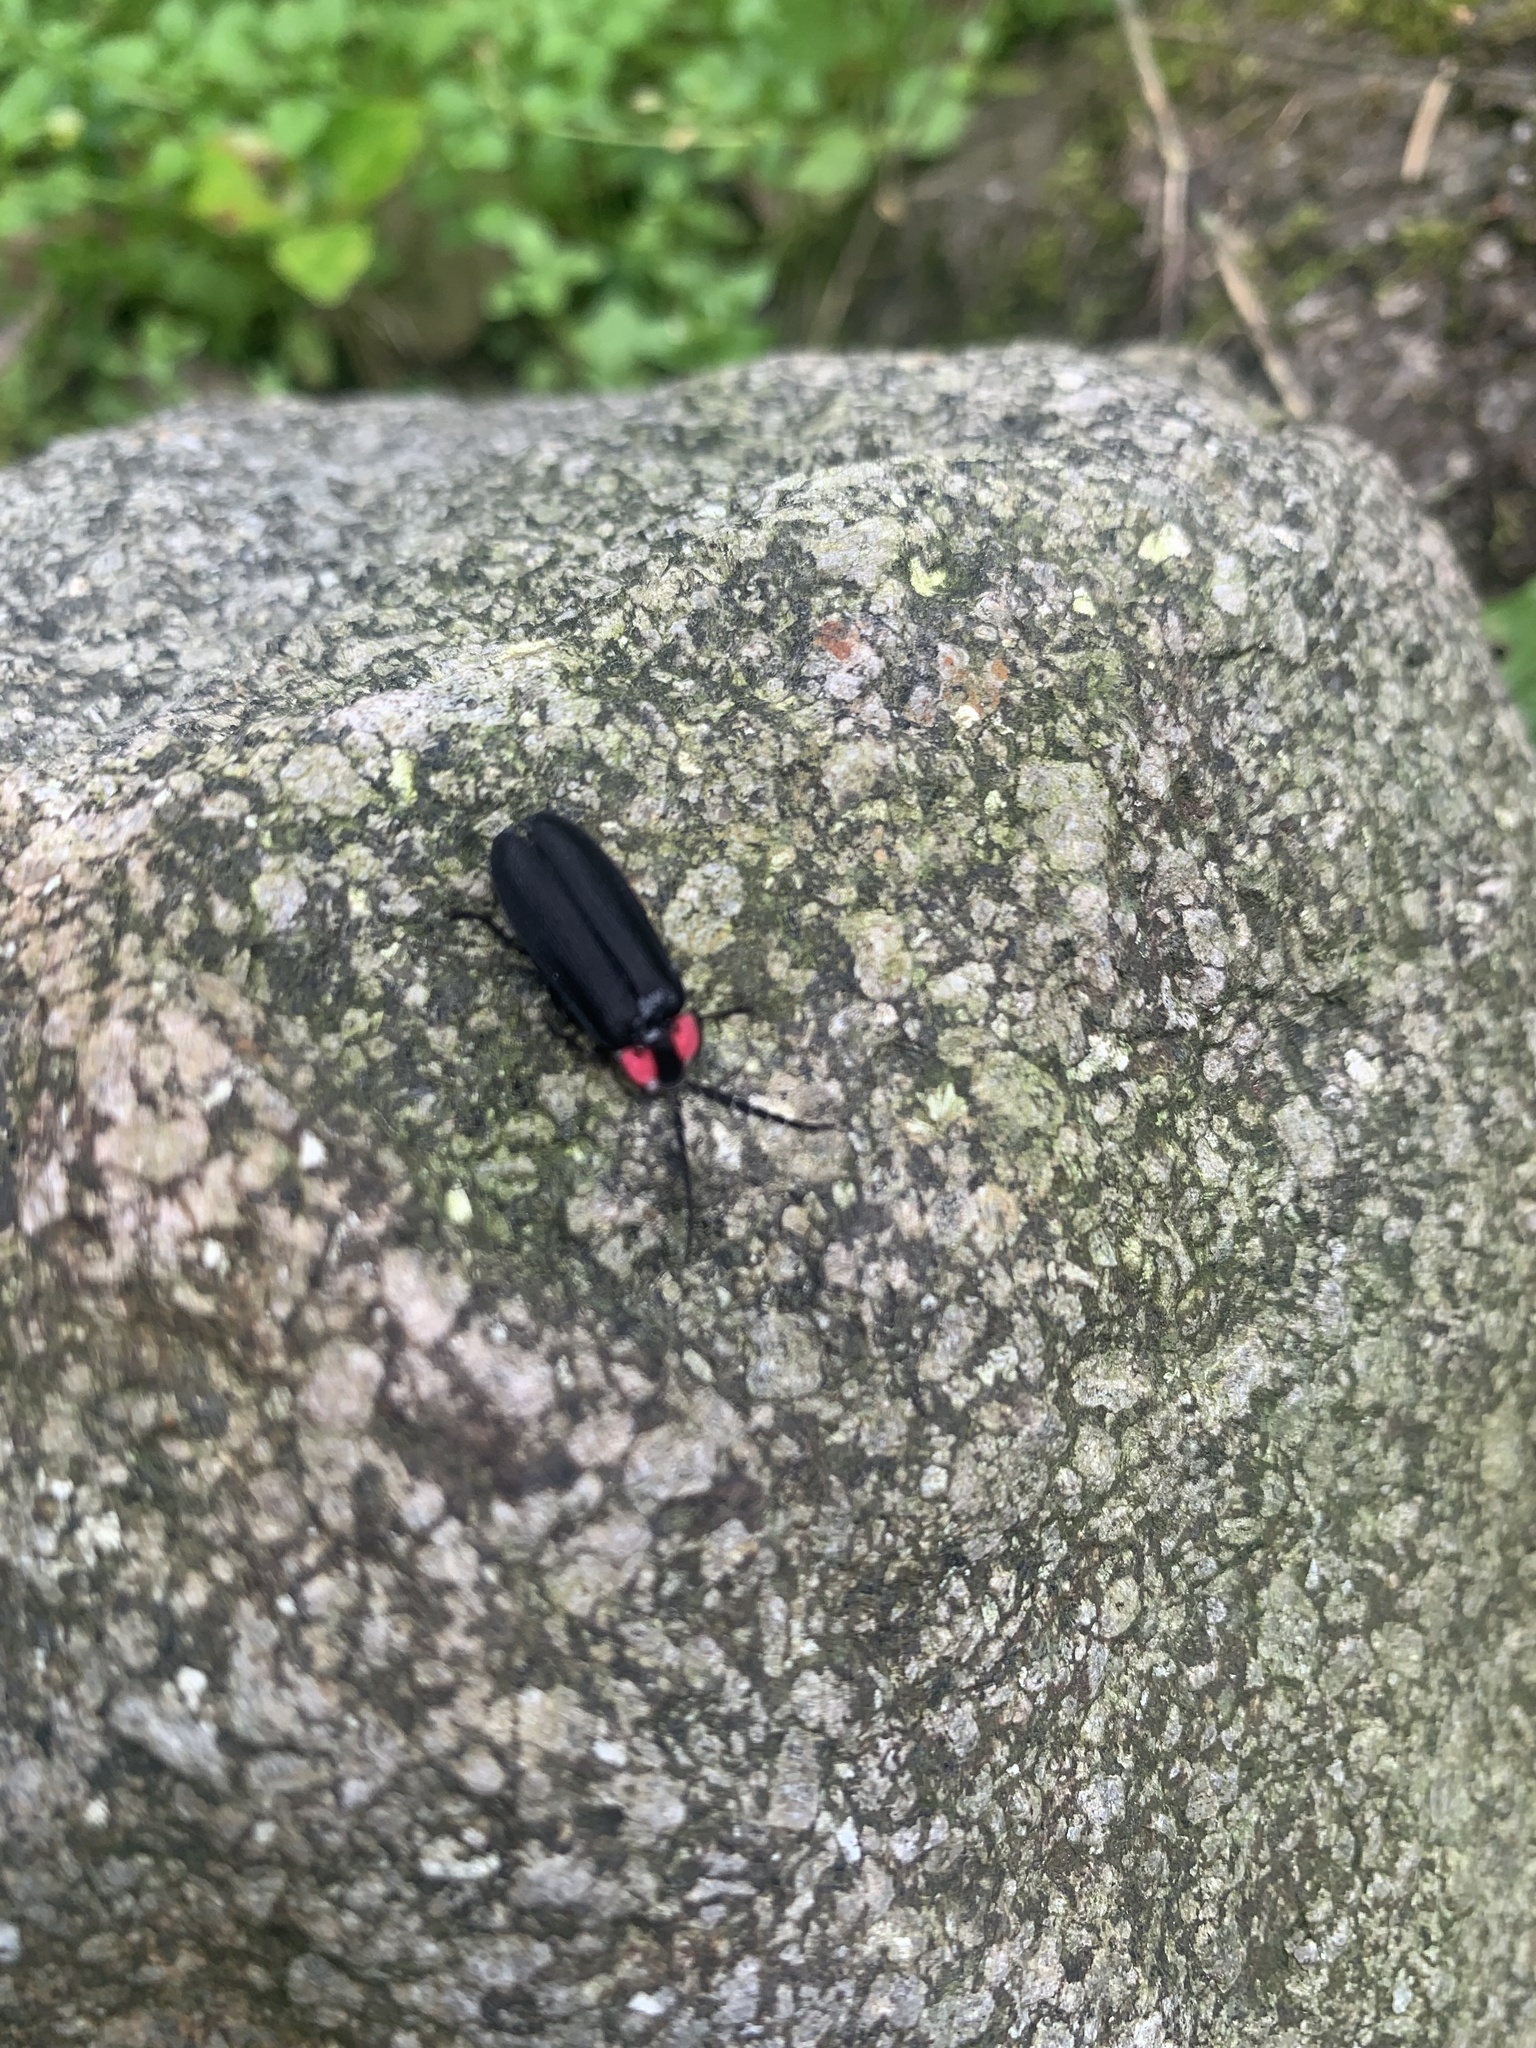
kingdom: Animalia
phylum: Arthropoda
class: Insecta
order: Coleoptera
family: Lampyridae
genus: Lucidina
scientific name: Lucidina accensa
